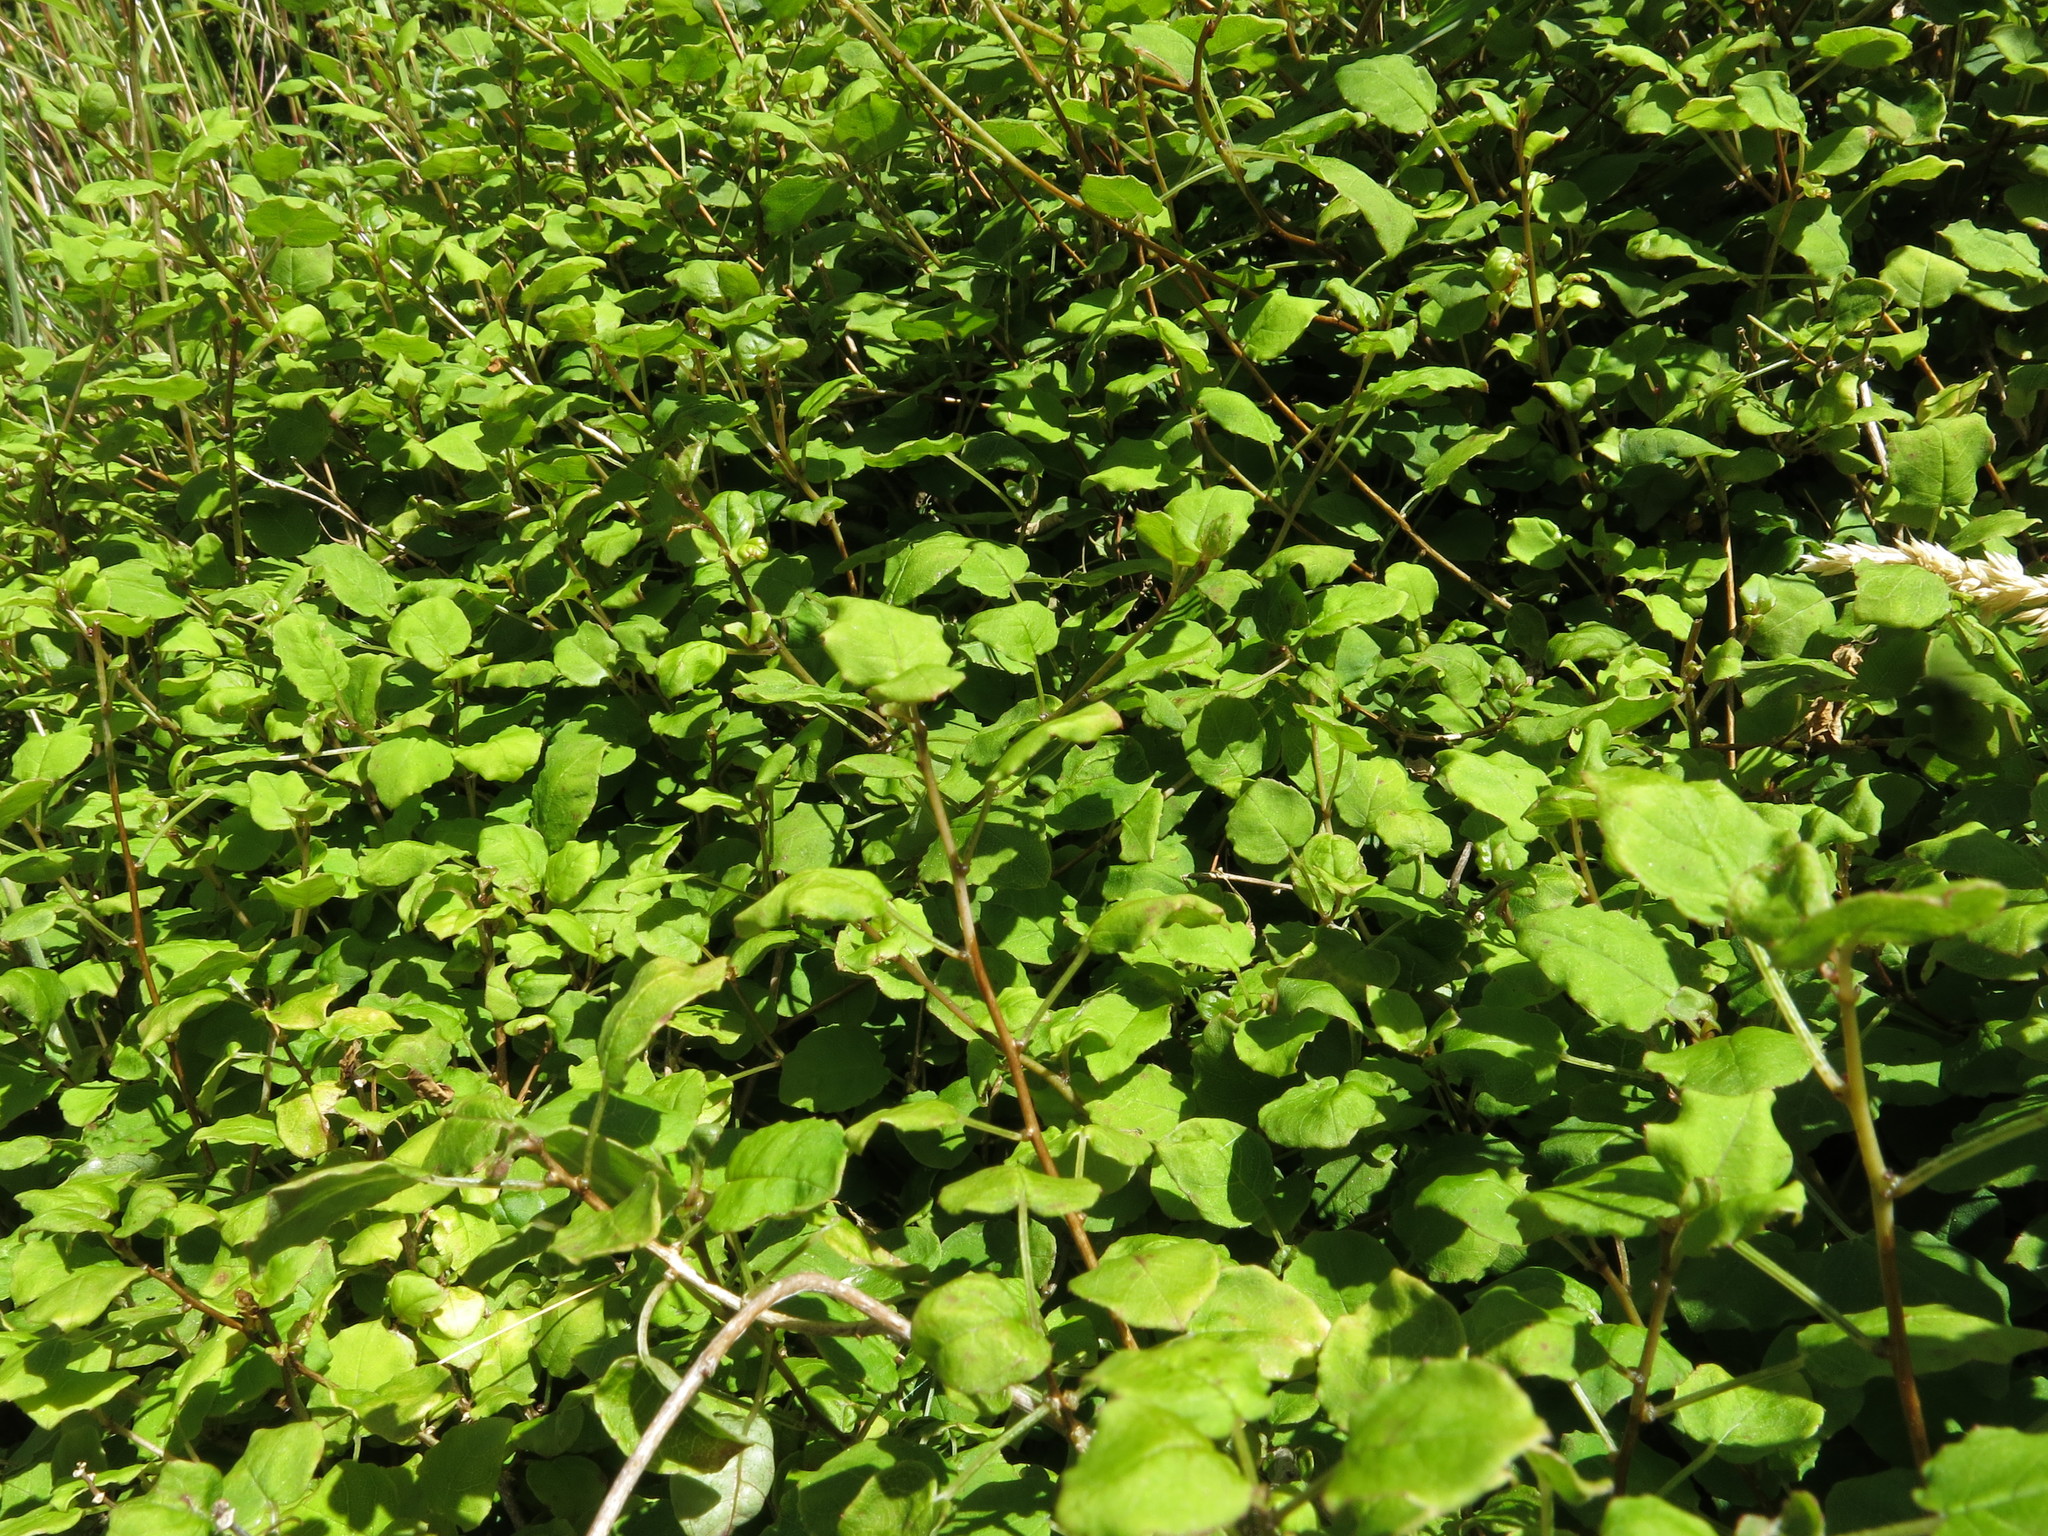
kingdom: Plantae
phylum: Tracheophyta
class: Magnoliopsida
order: Myrtales
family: Onagraceae
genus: Fuchsia
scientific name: Fuchsia perscandens
